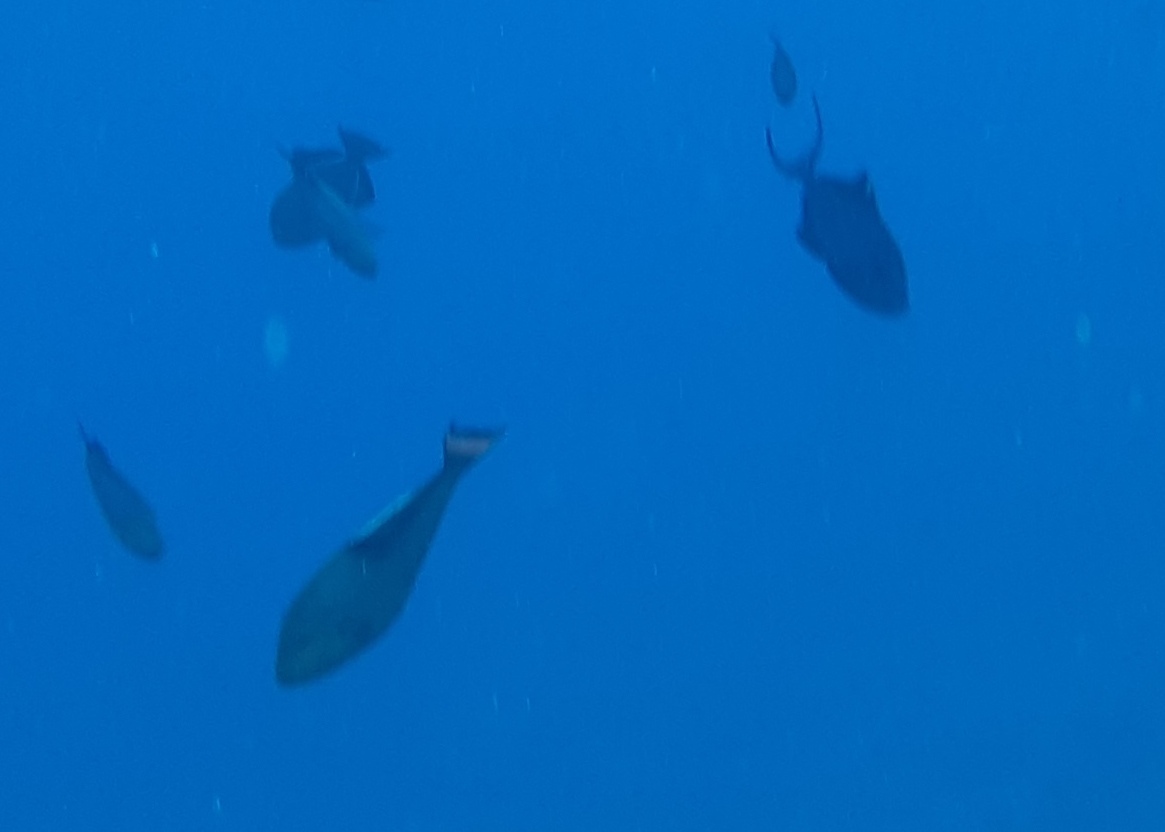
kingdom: Animalia
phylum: Chordata
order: Tetraodontiformes
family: Balistidae
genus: Odonus
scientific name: Odonus niger
